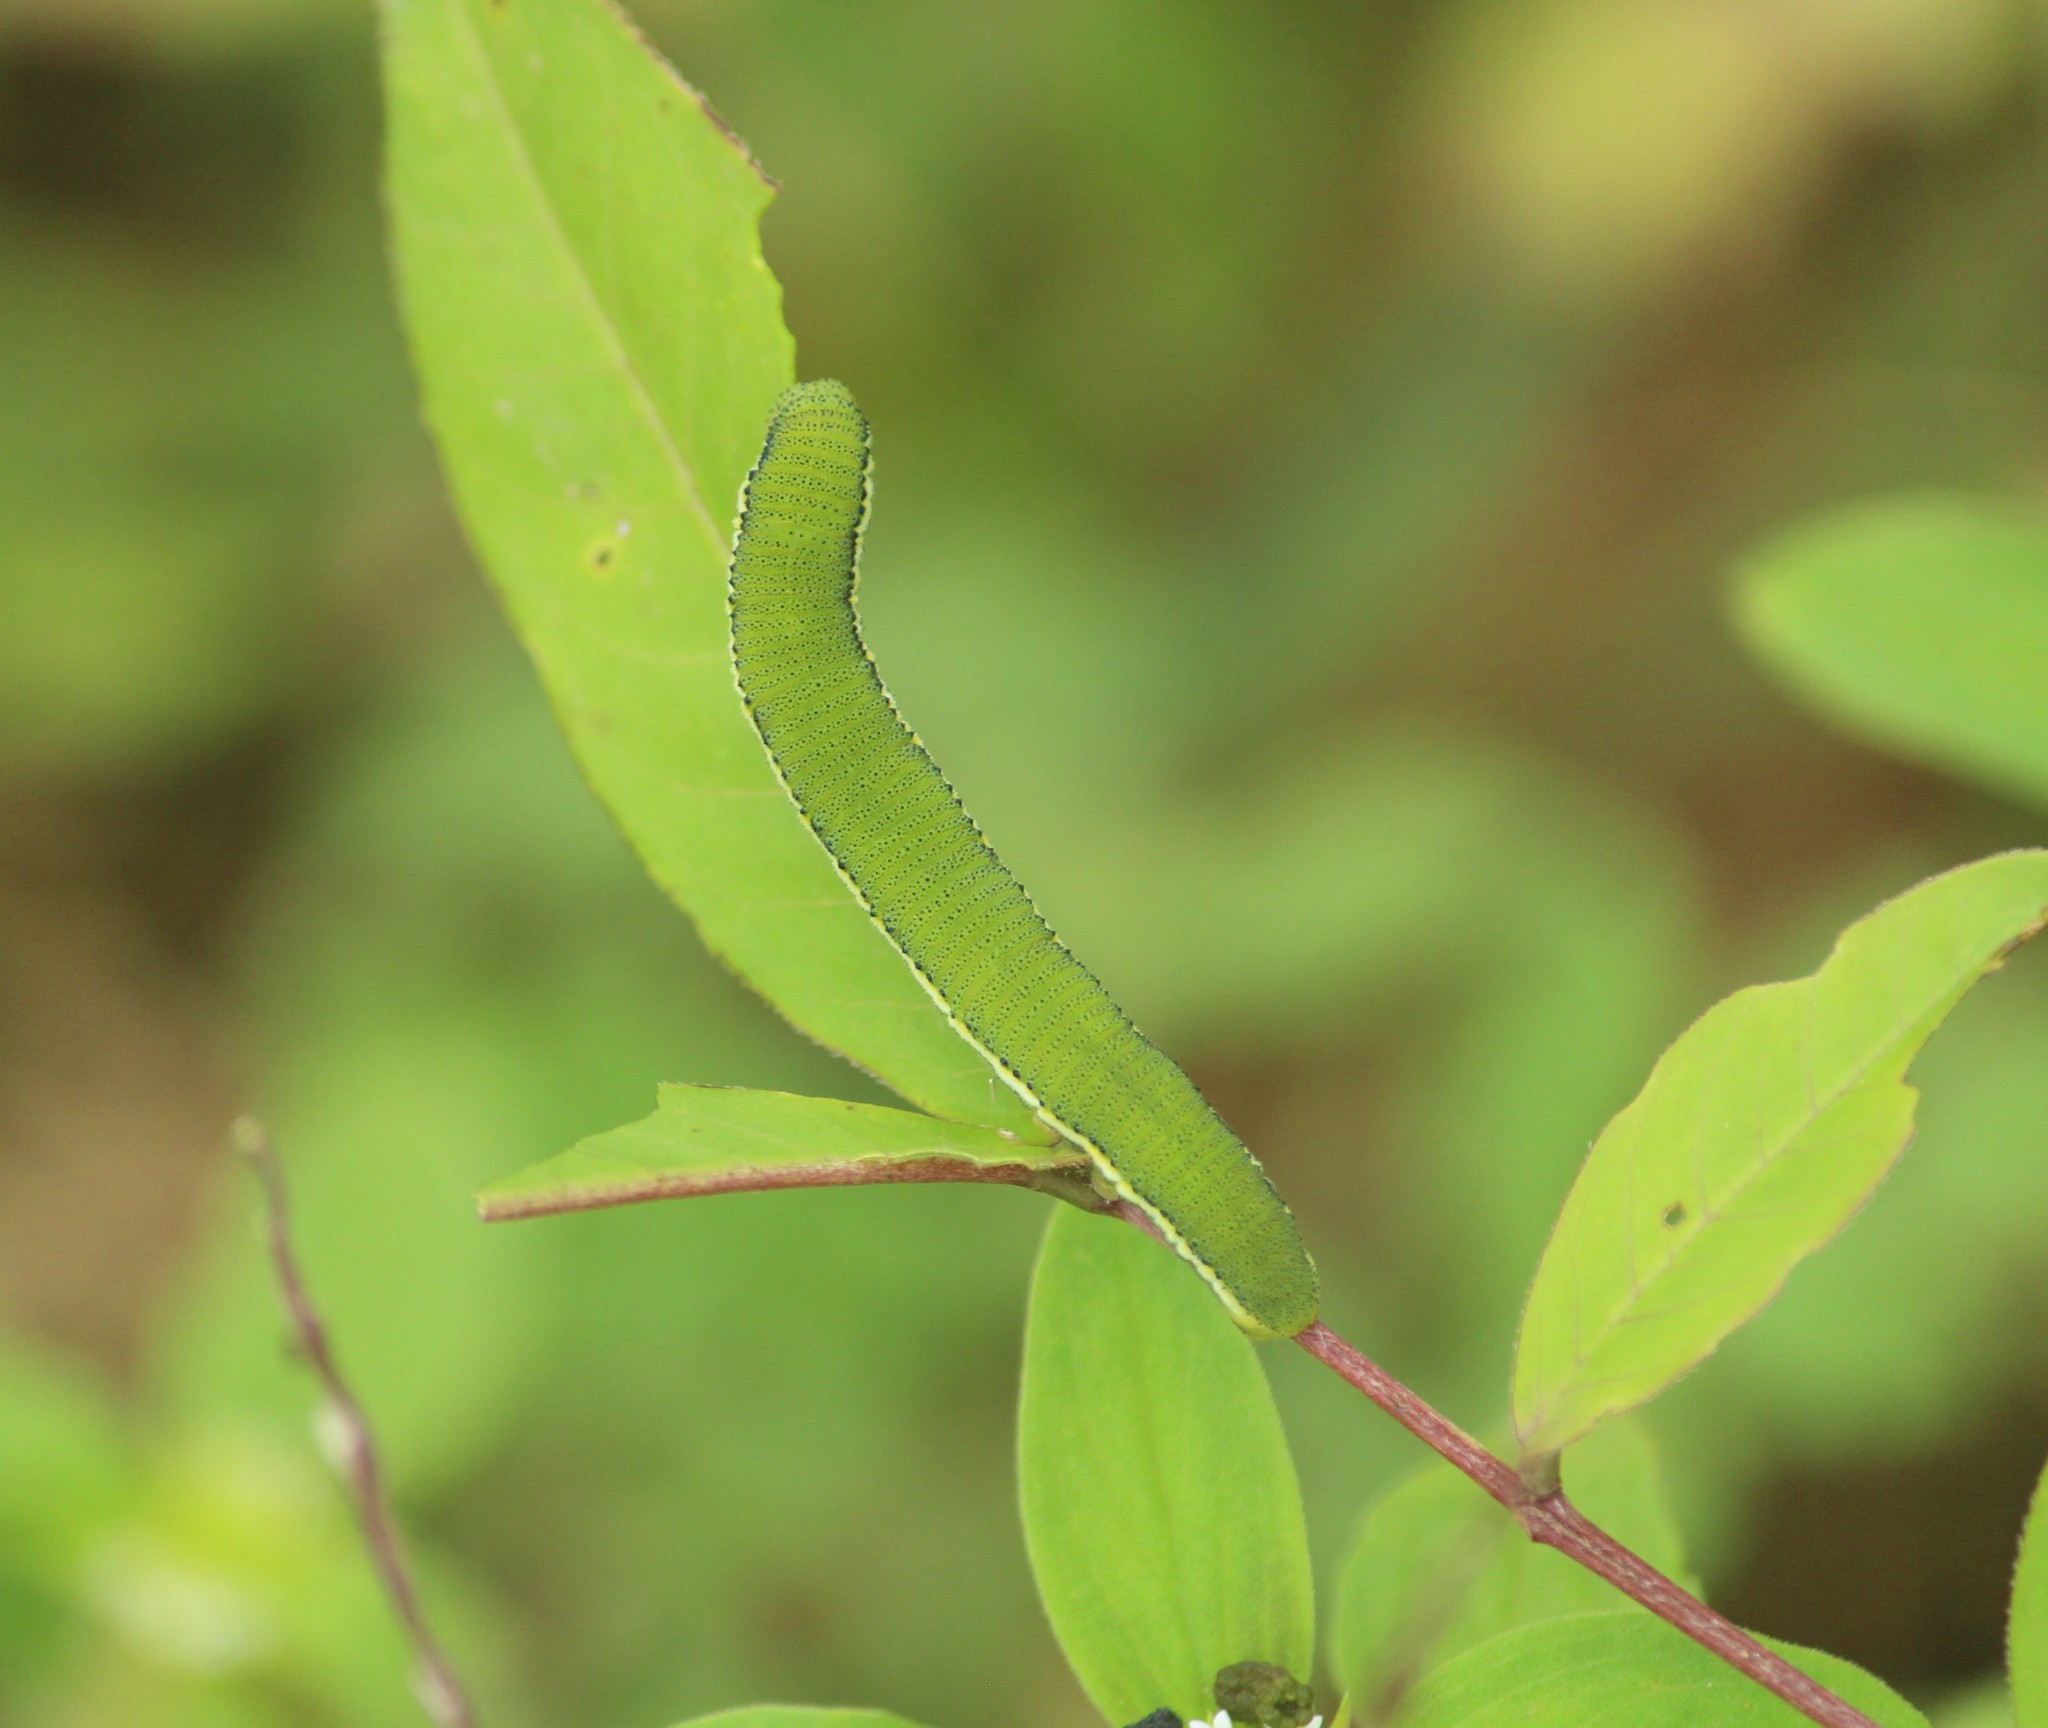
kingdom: Animalia
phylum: Arthropoda
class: Insecta
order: Lepidoptera
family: Pieridae
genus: Catopsilia
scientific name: Catopsilia pyranthe
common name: Mottled emigrant
